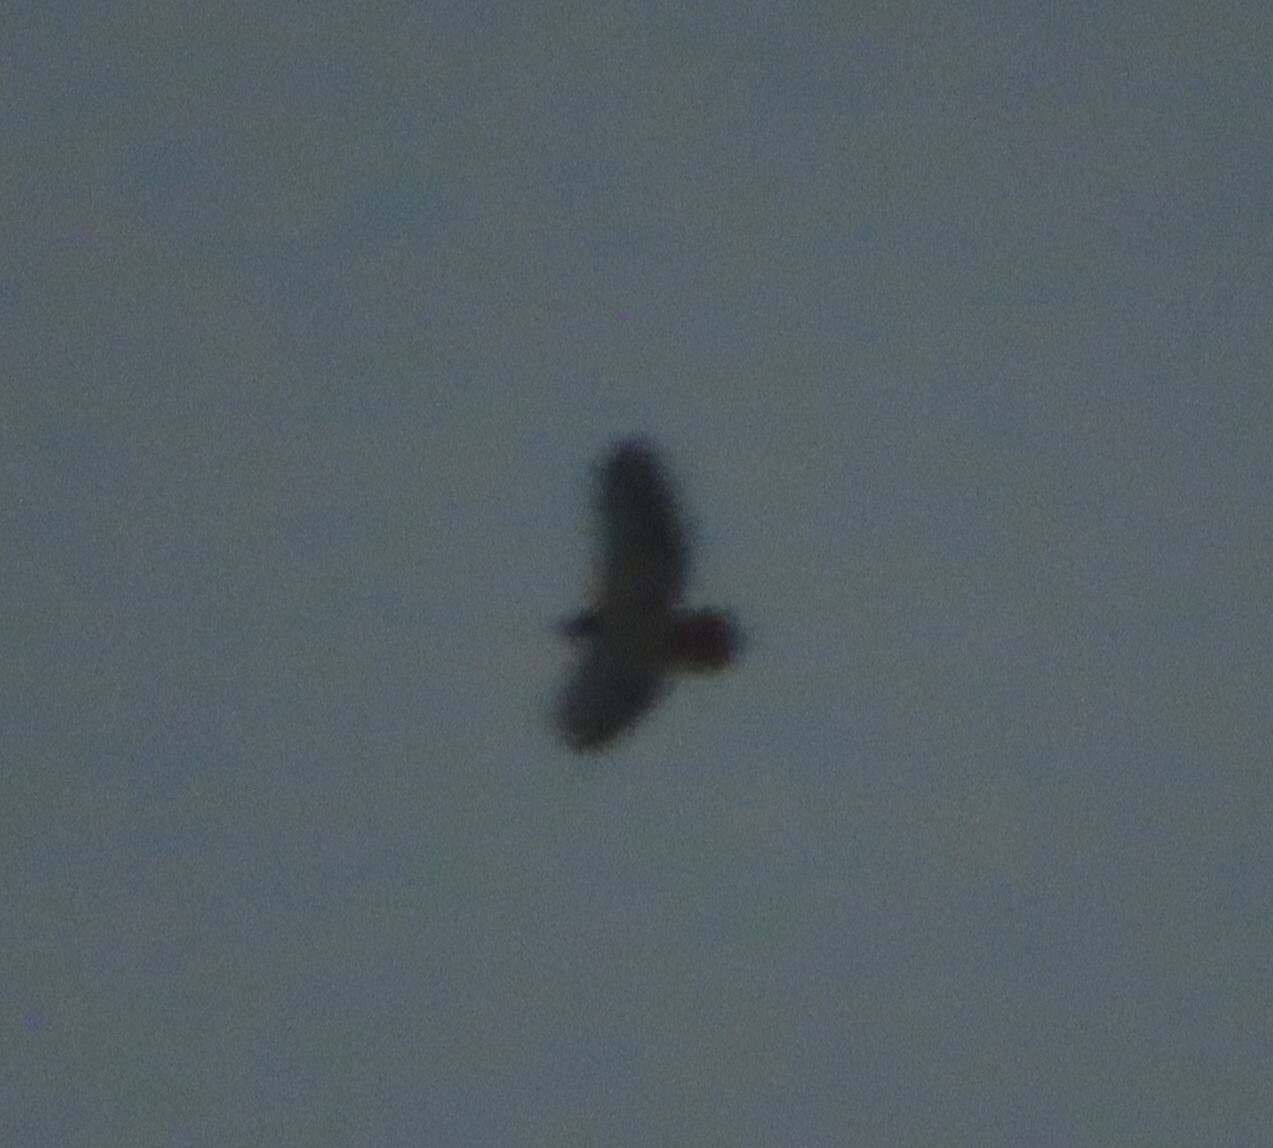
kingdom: Animalia
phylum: Chordata
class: Aves
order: Accipitriformes
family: Accipitridae
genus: Buteo
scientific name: Buteo jamaicensis
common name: Red-tailed hawk
